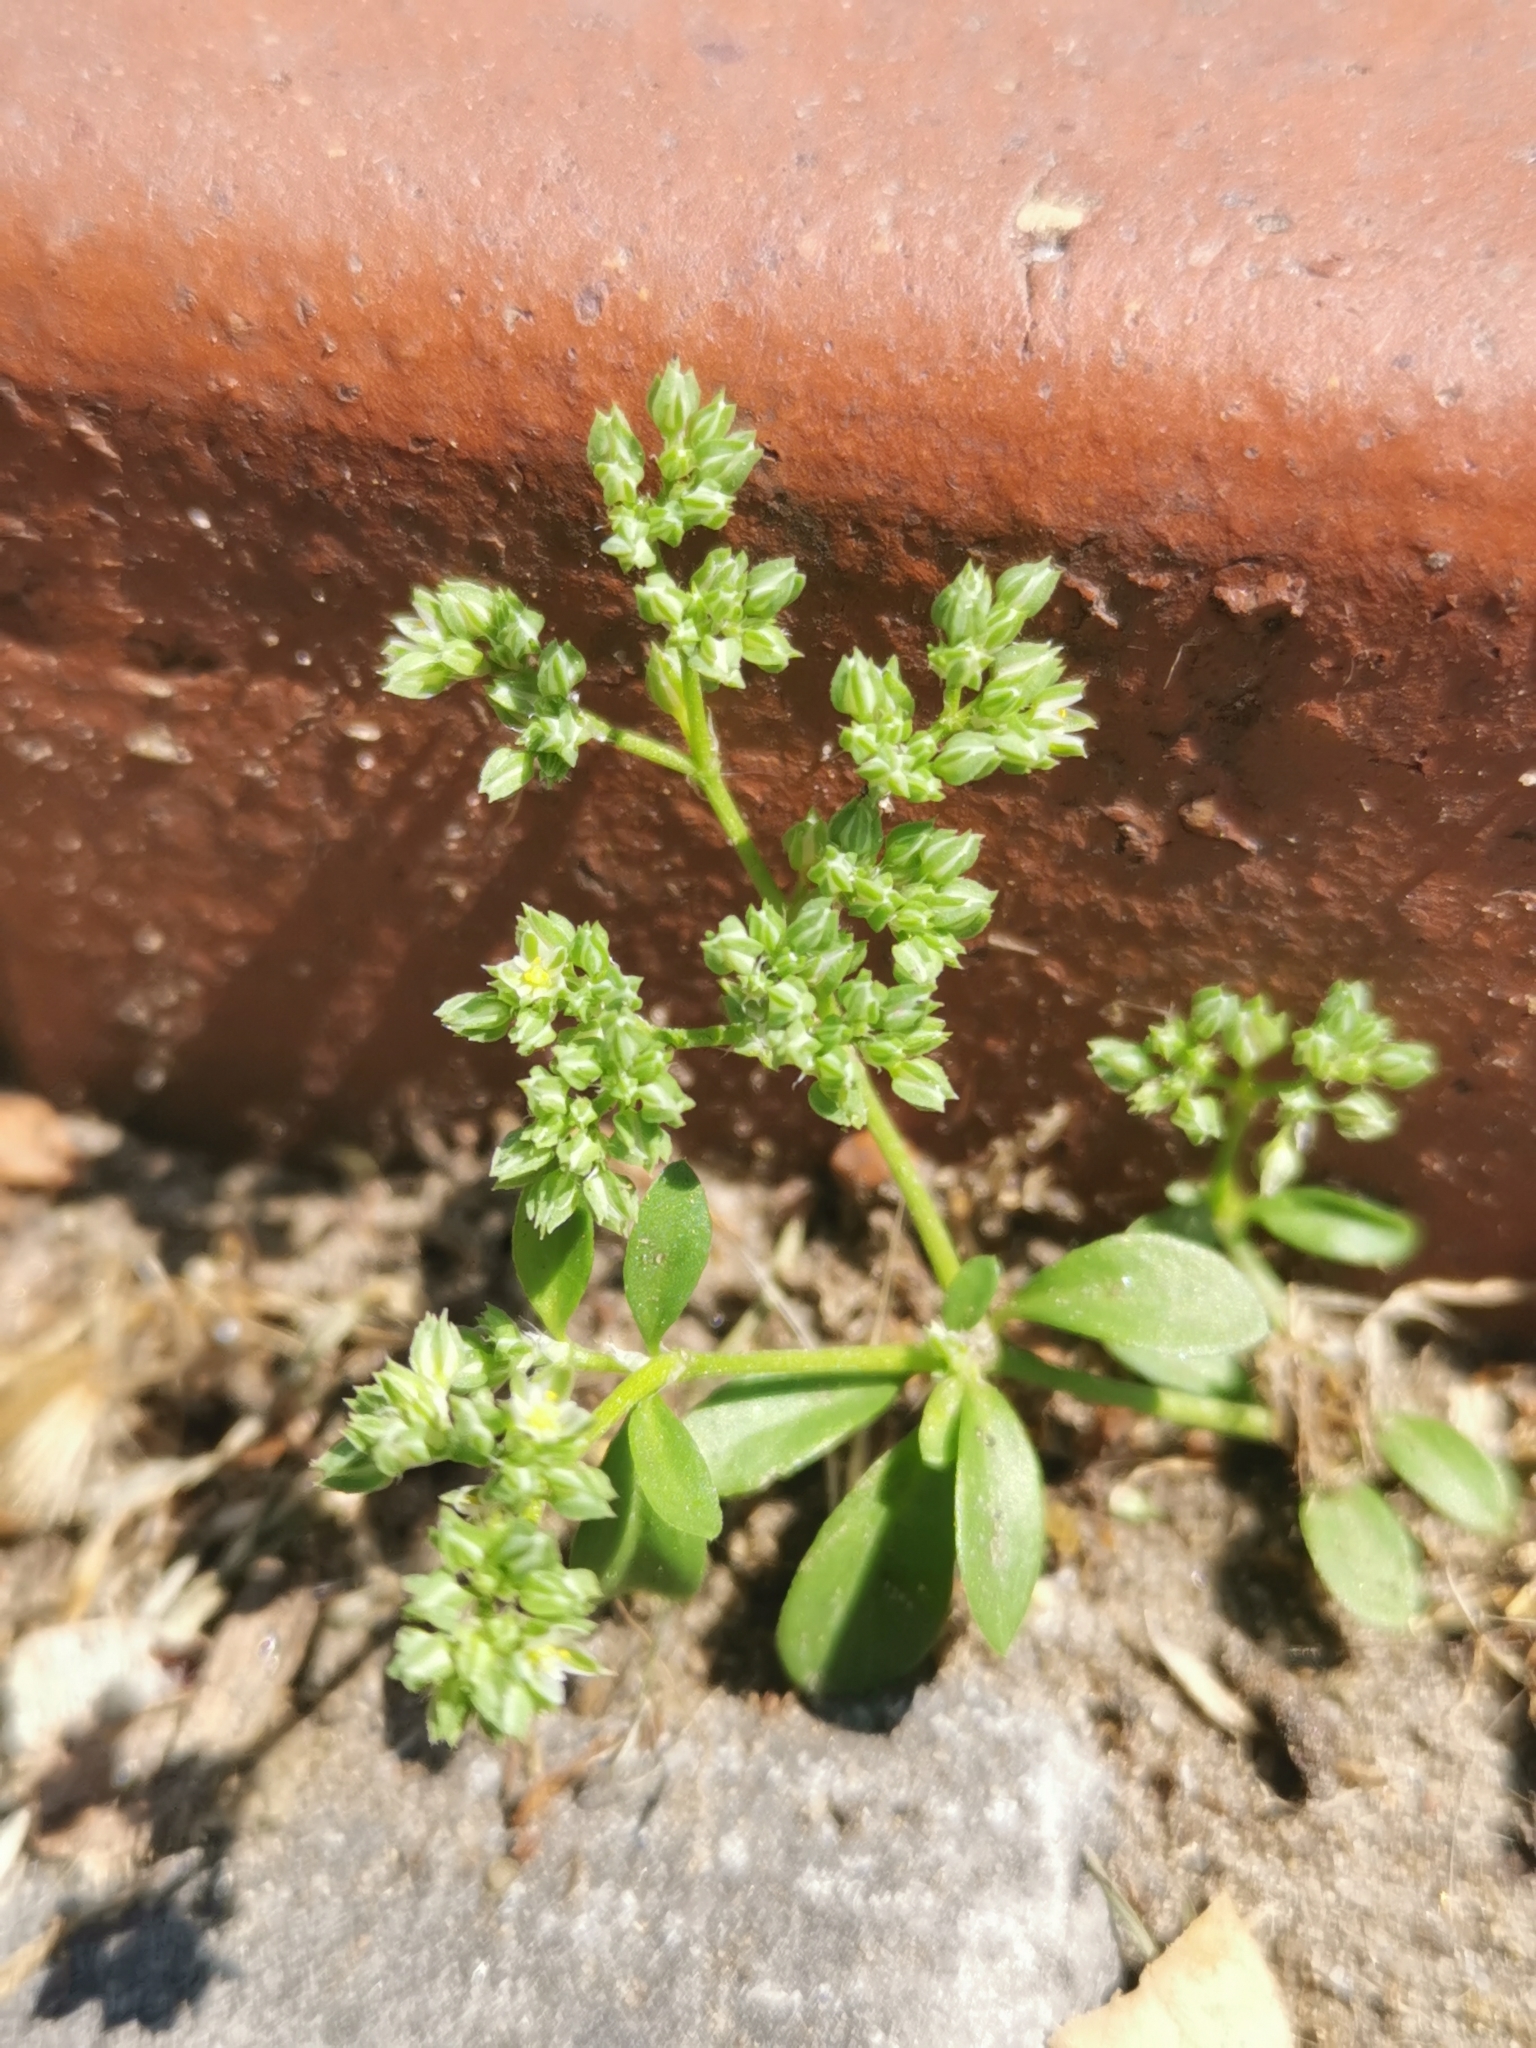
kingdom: Plantae
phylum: Tracheophyta
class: Magnoliopsida
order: Caryophyllales
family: Caryophyllaceae
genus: Polycarpon
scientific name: Polycarpon tetraphyllum
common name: Four-leaved all-seed
